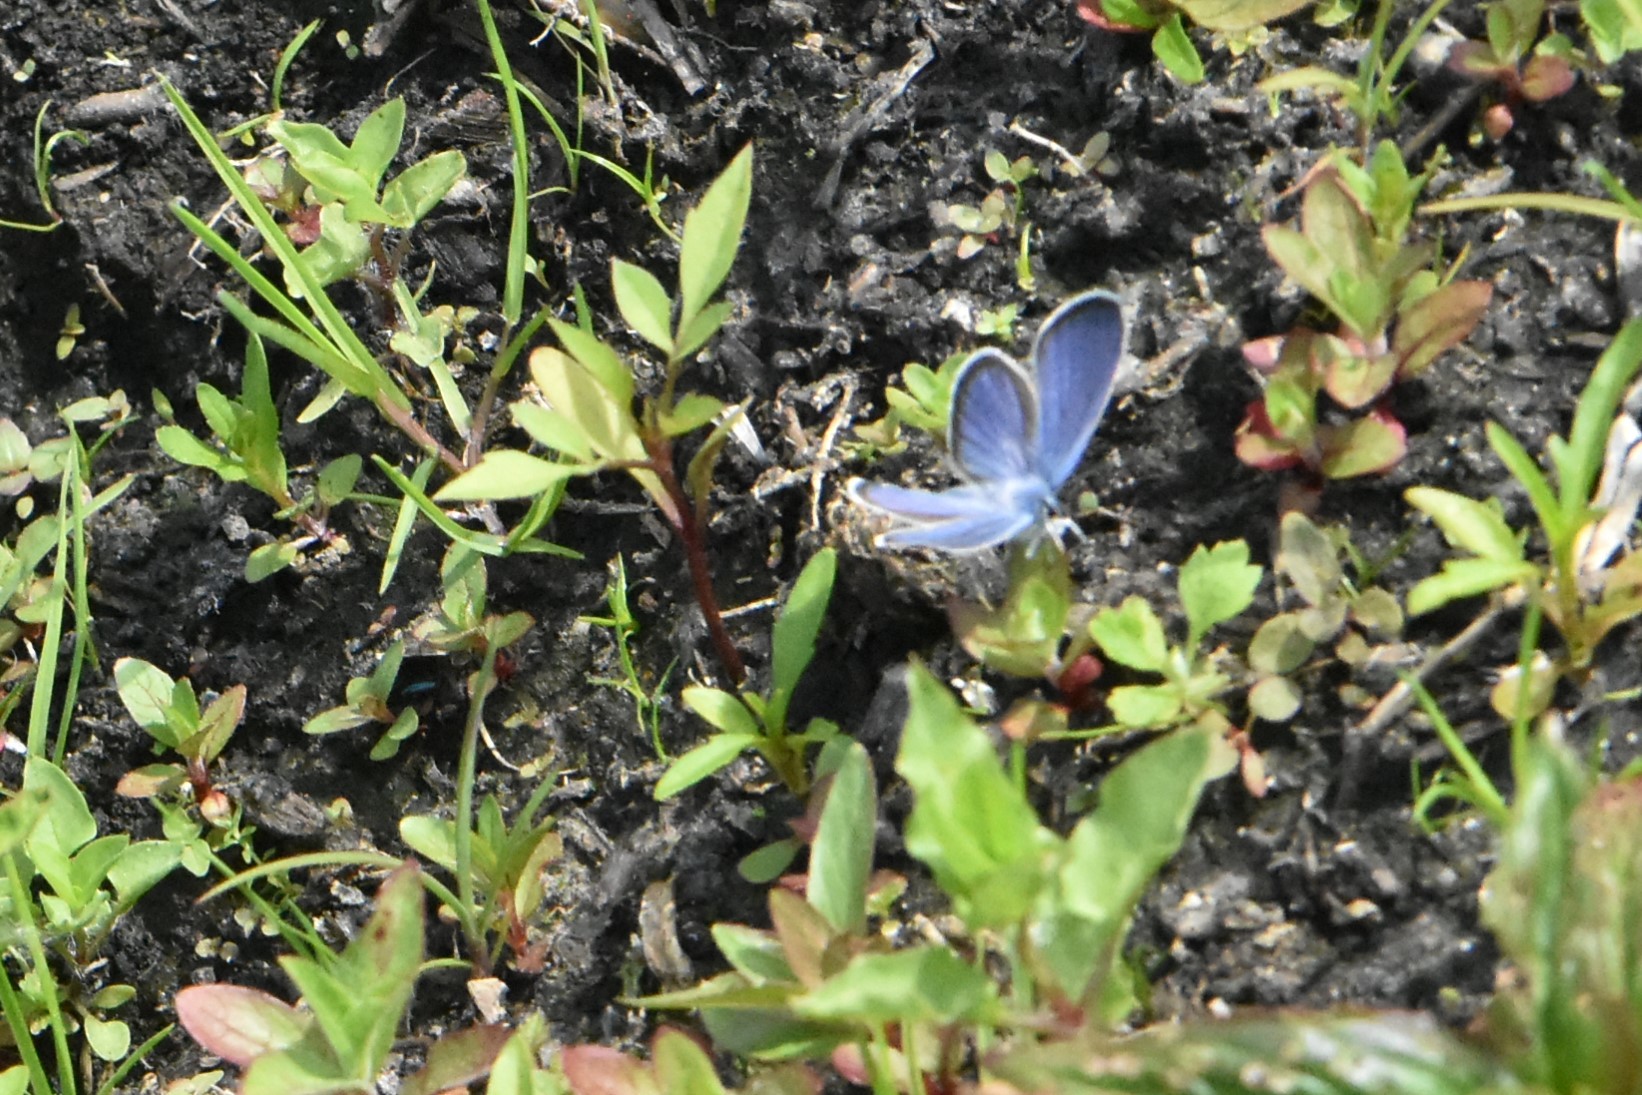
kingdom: Animalia
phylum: Arthropoda
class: Insecta
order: Lepidoptera
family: Lycaenidae
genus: Cyaniris
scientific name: Cyaniris semiargus
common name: Mazarine blue
